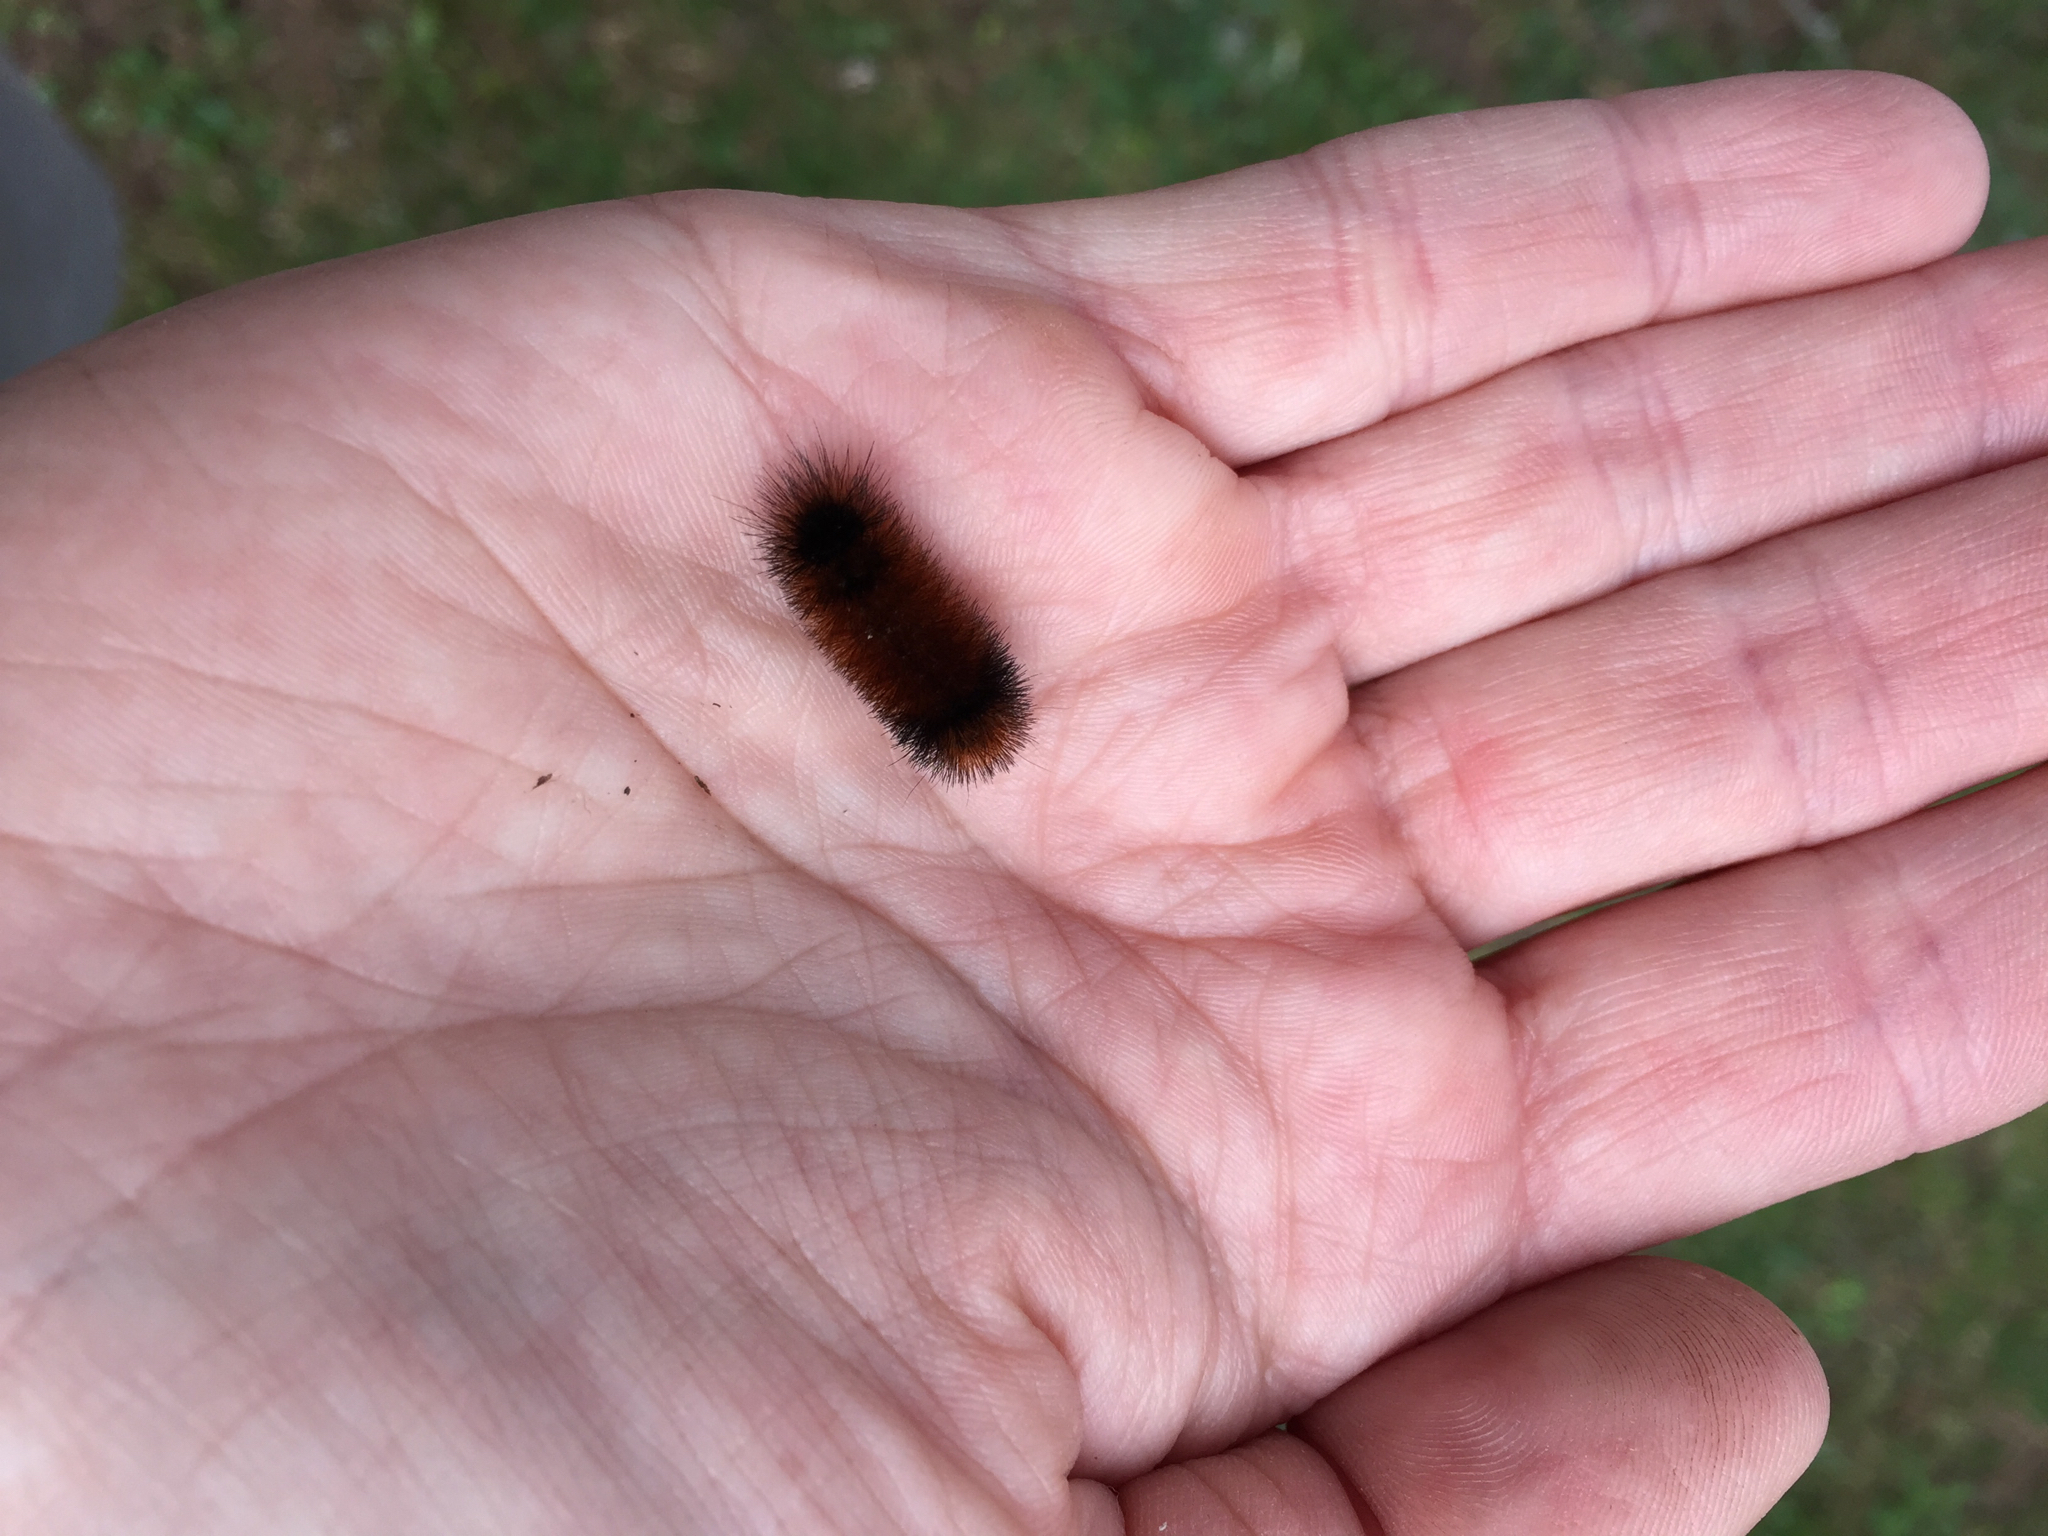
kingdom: Animalia
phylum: Arthropoda
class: Insecta
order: Lepidoptera
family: Erebidae
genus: Pyrrharctia
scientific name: Pyrrharctia isabella
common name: Isabella tiger moth
